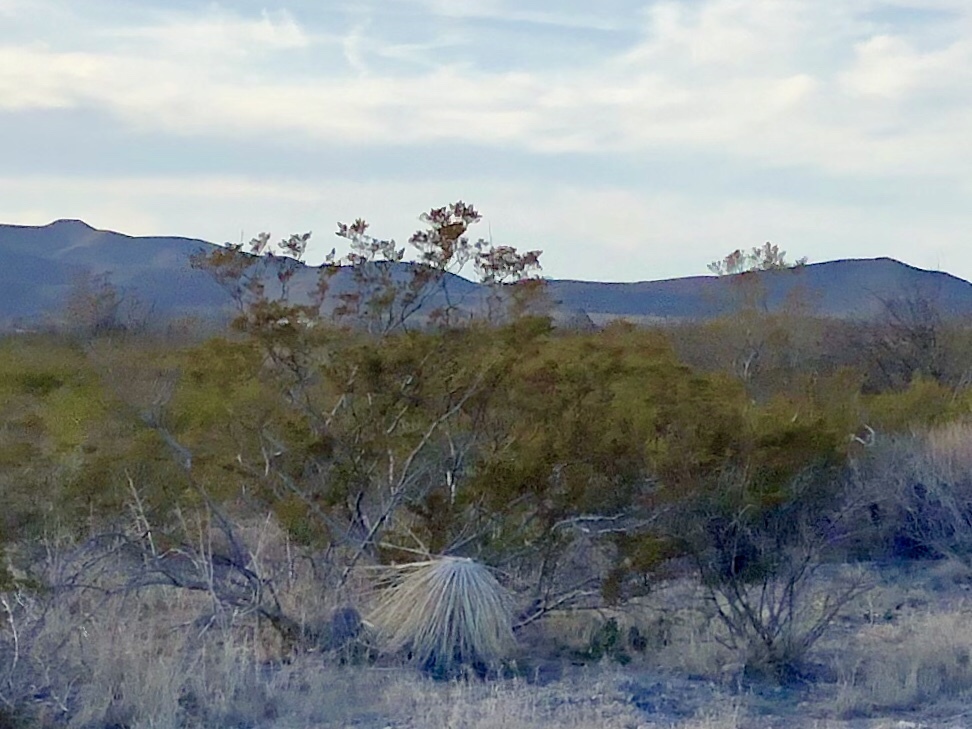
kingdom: Plantae
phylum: Tracheophyta
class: Magnoliopsida
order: Zygophyllales
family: Zygophyllaceae
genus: Larrea
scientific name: Larrea tridentata
